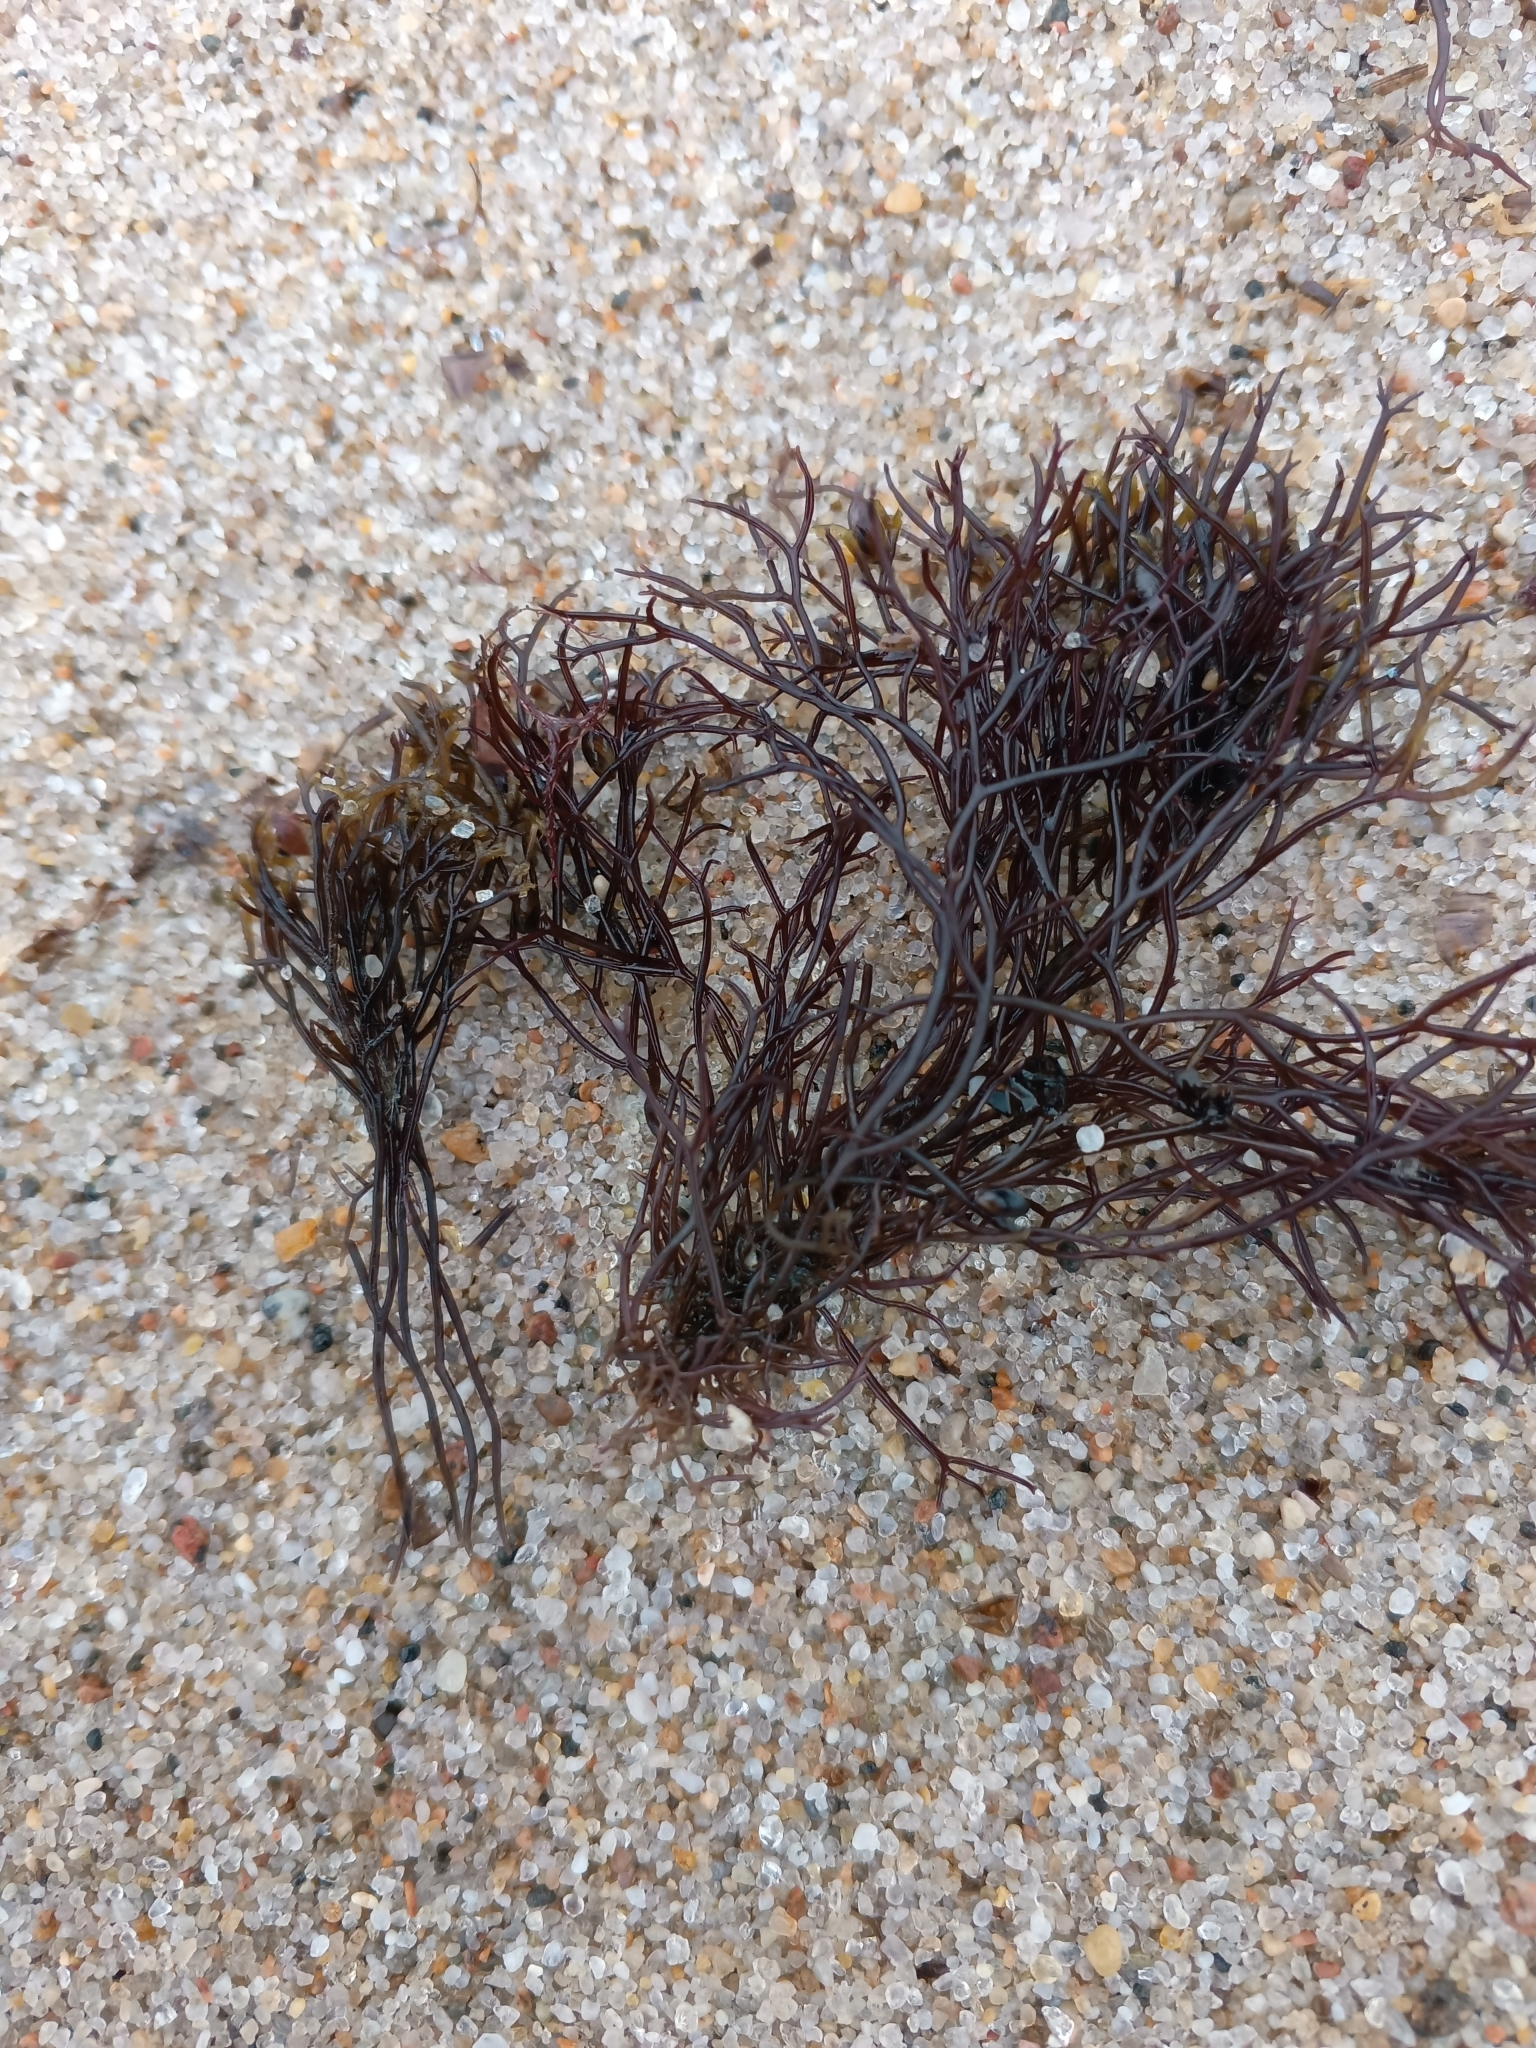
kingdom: Plantae
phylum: Rhodophyta
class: Florideophyceae
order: Gigartinales
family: Furcellariaceae
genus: Furcellaria
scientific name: Furcellaria lumbricalis
